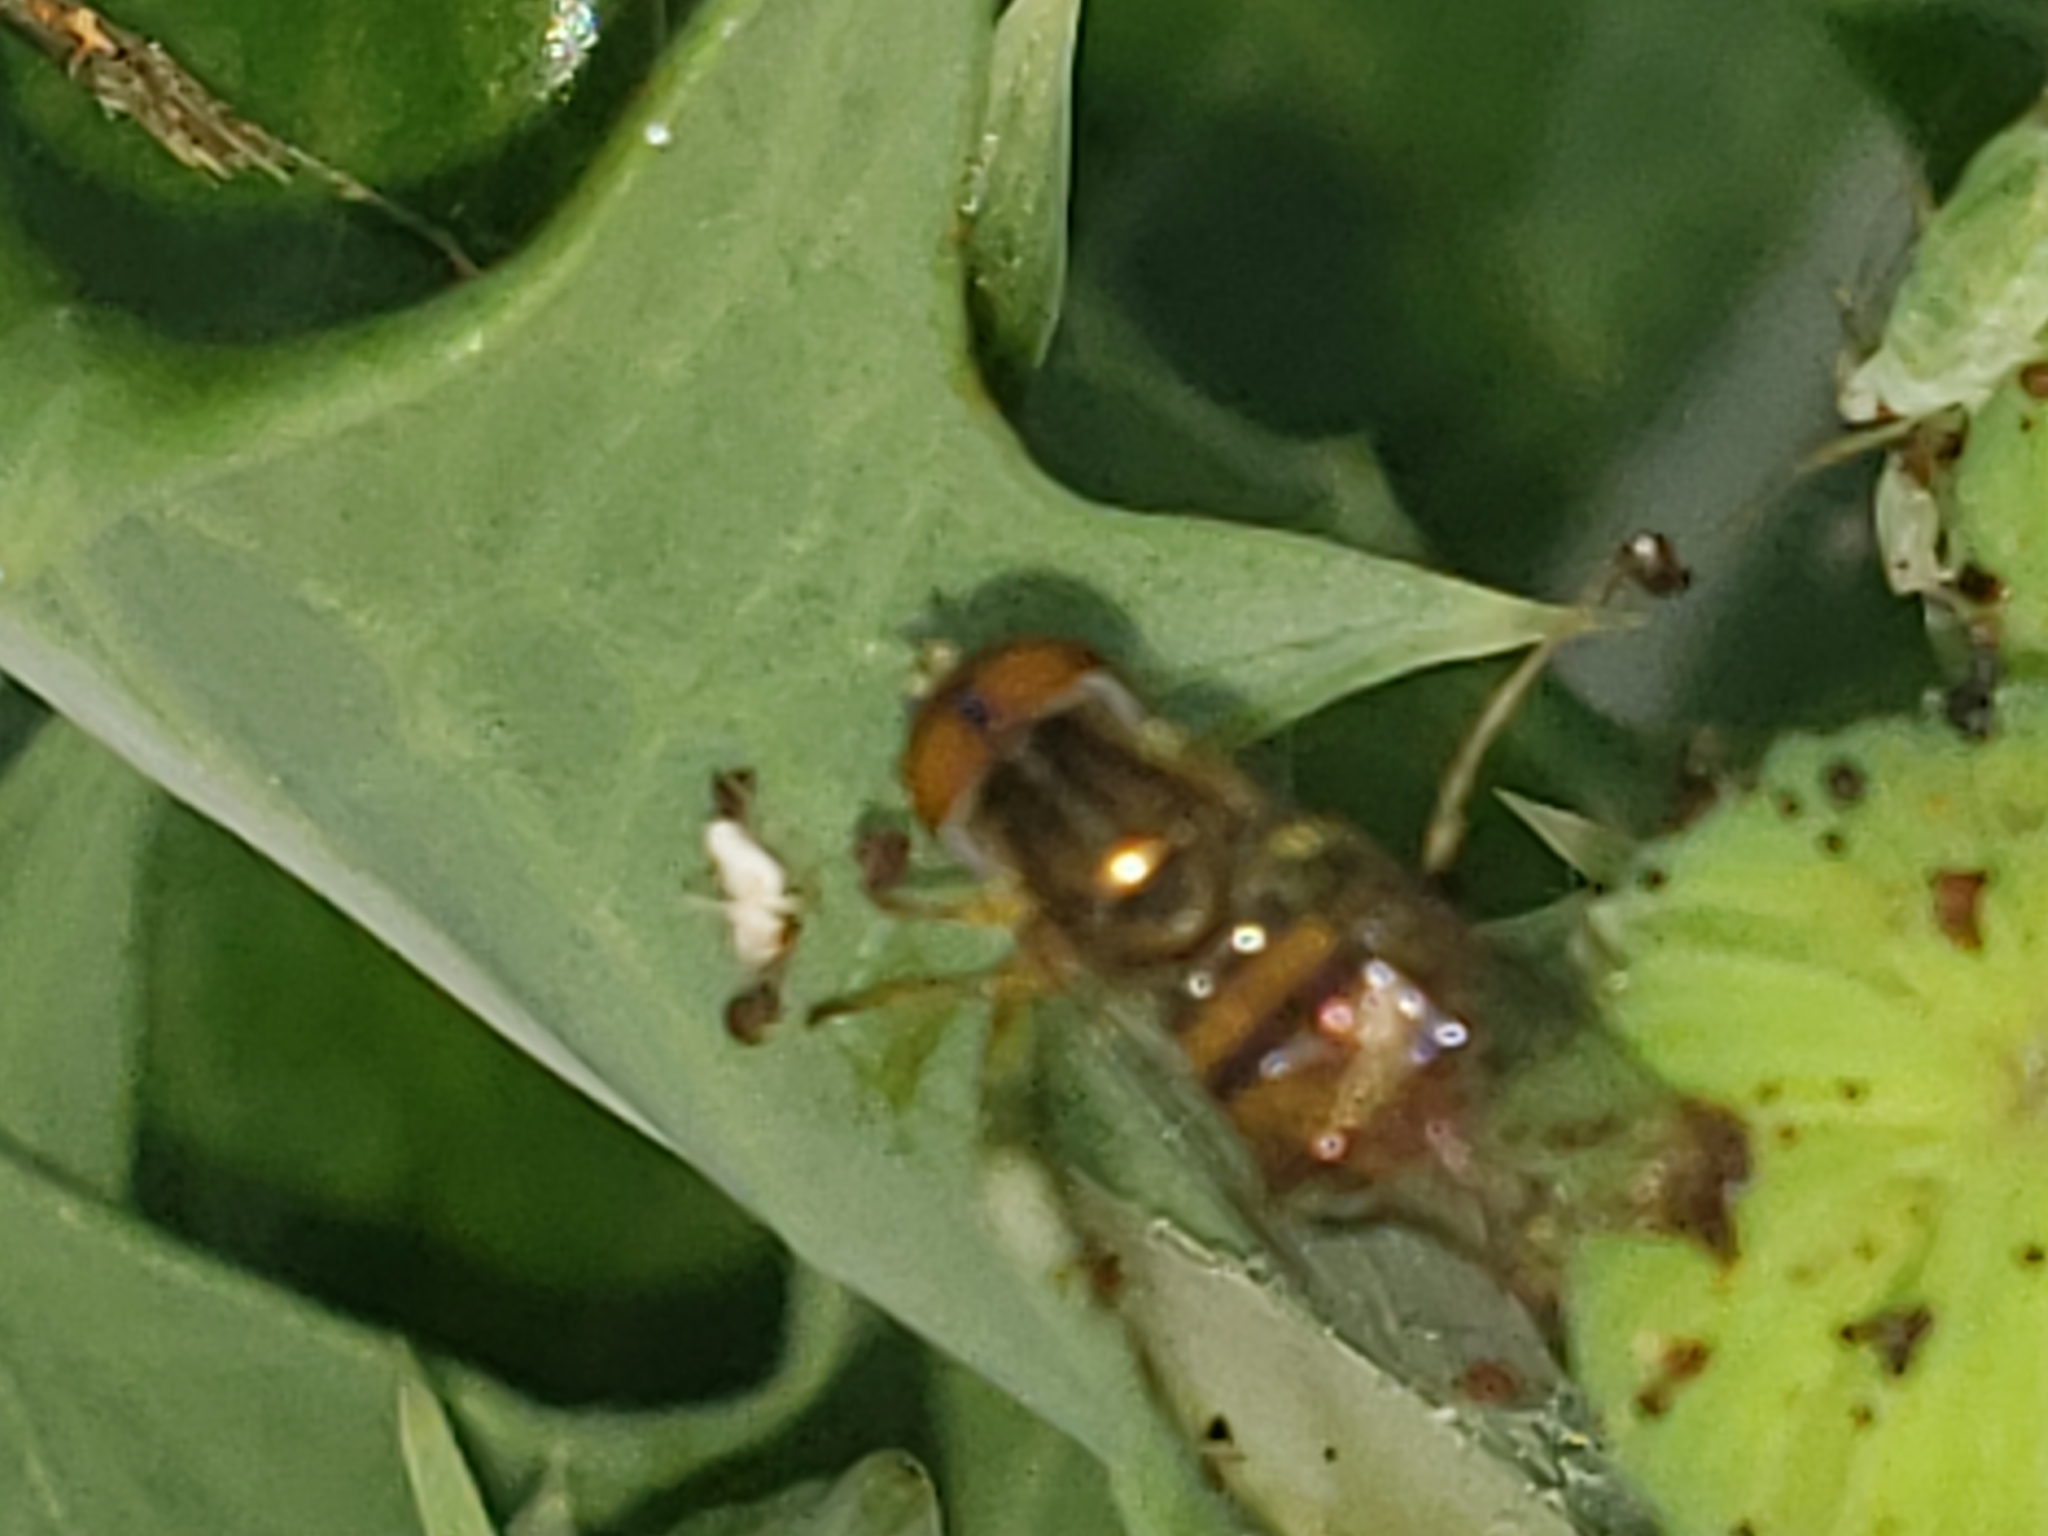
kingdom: Animalia
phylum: Arthropoda
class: Insecta
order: Diptera
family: Syrphidae
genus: Toxomerus
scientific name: Toxomerus boscii
